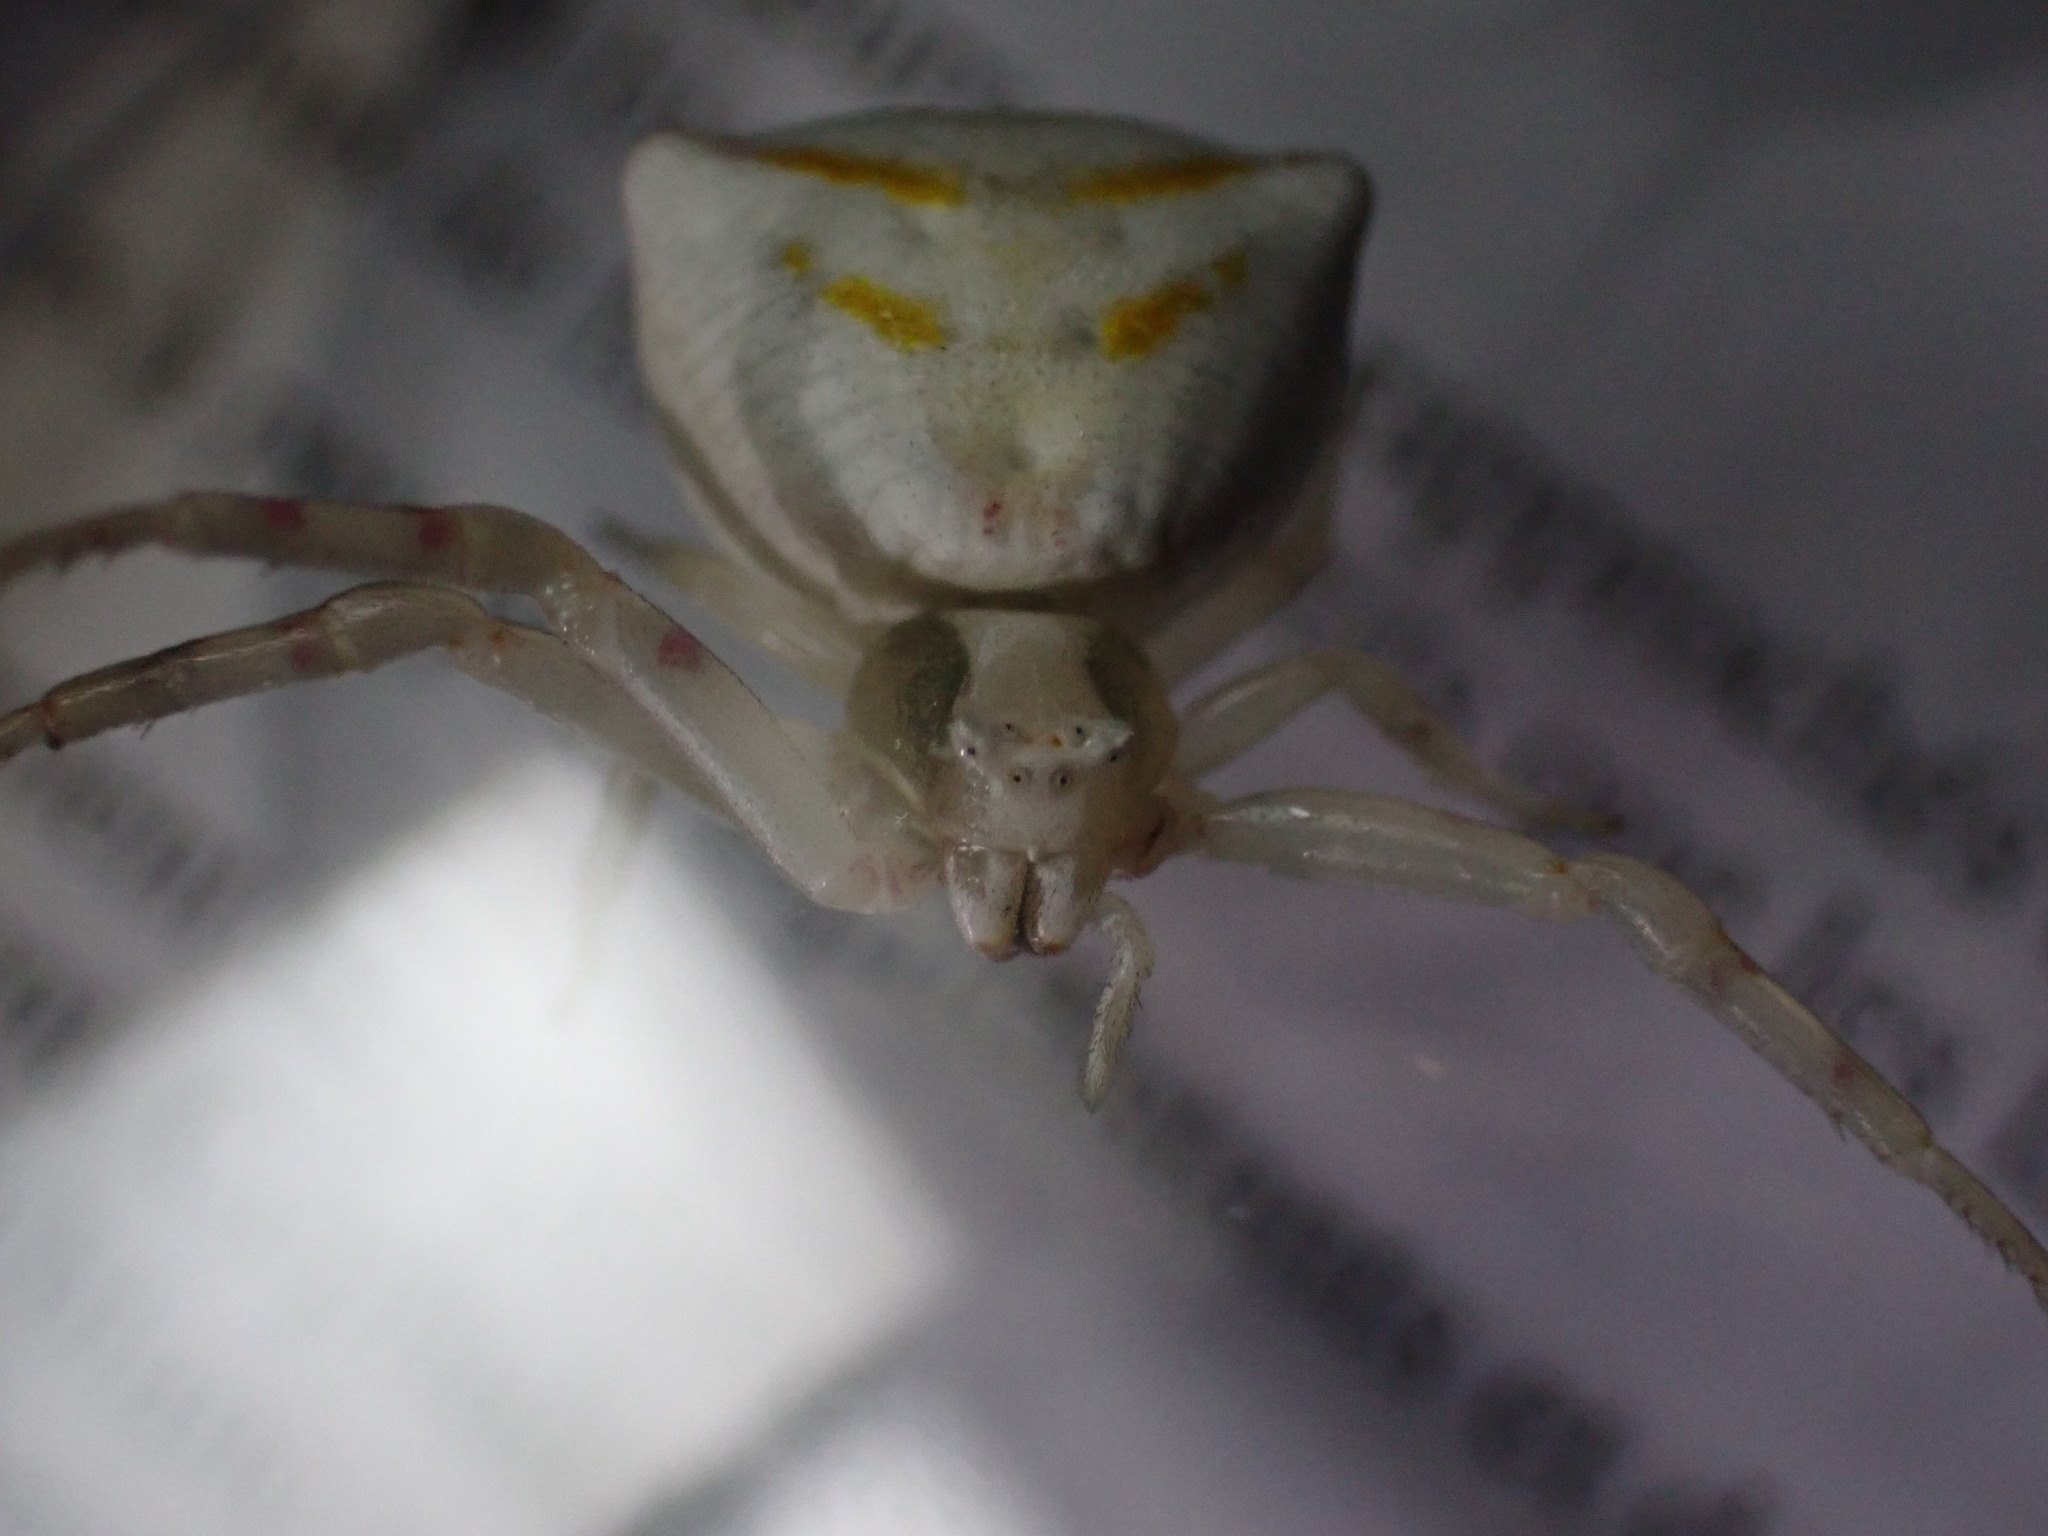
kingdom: Animalia
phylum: Arthropoda
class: Arachnida
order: Araneae
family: Thomisidae
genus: Thomisus
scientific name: Thomisus onustus
